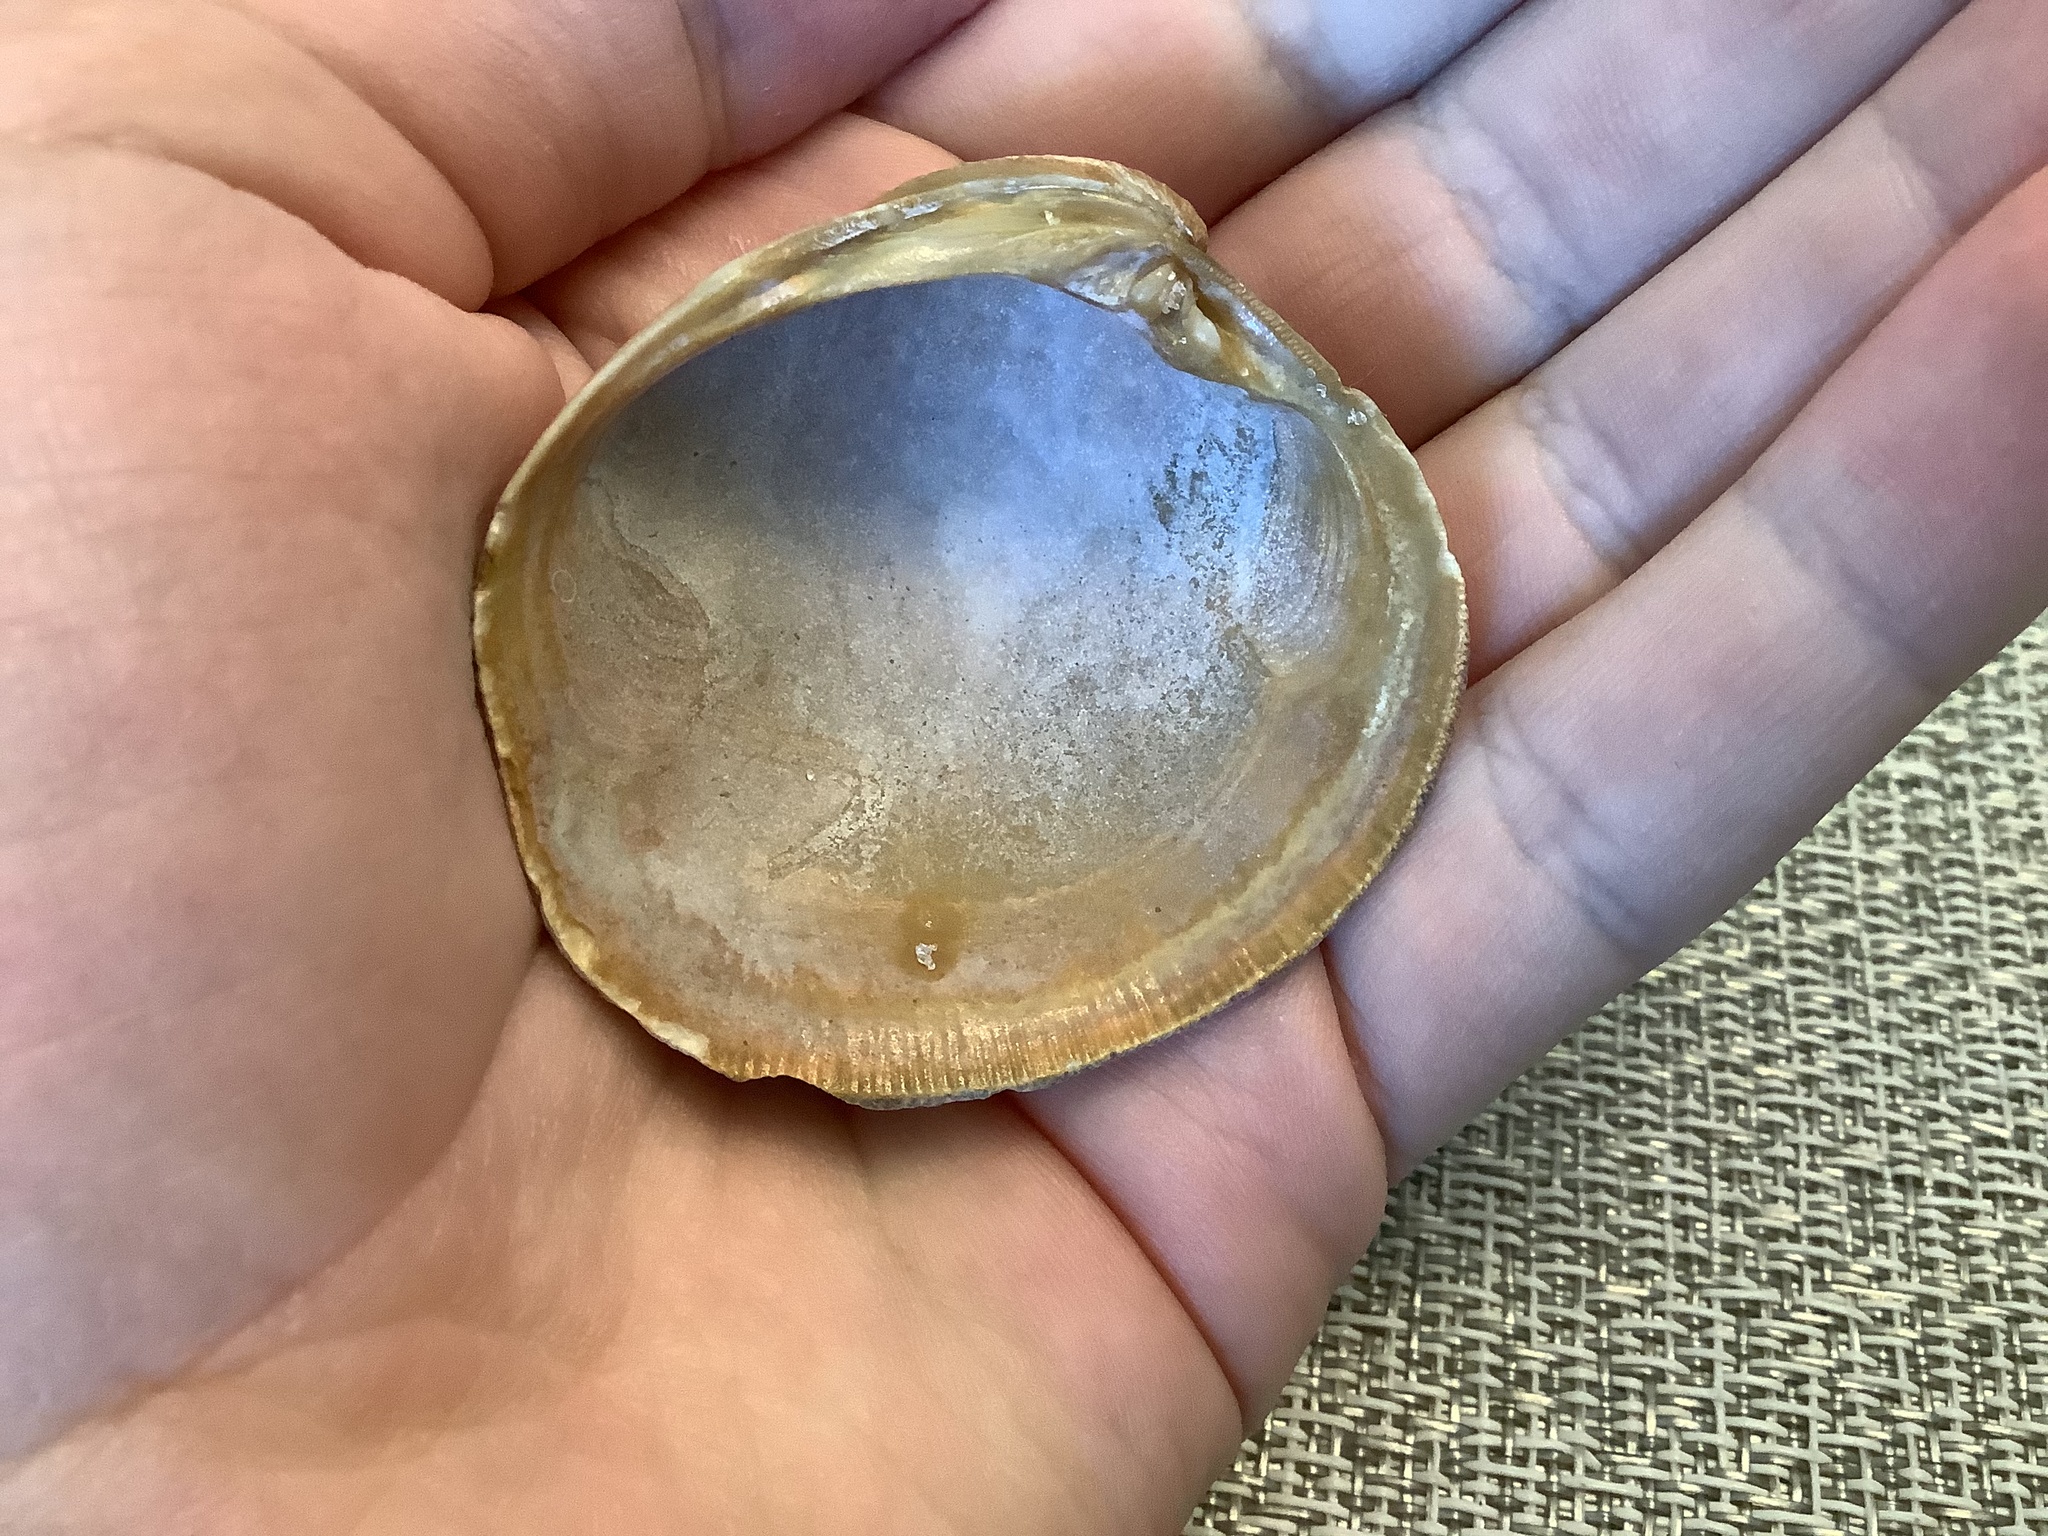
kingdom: Animalia
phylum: Mollusca
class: Bivalvia
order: Venerida
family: Veneridae
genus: Mercenaria
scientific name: Mercenaria campechiensis
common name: Südliche quahog-muschel
